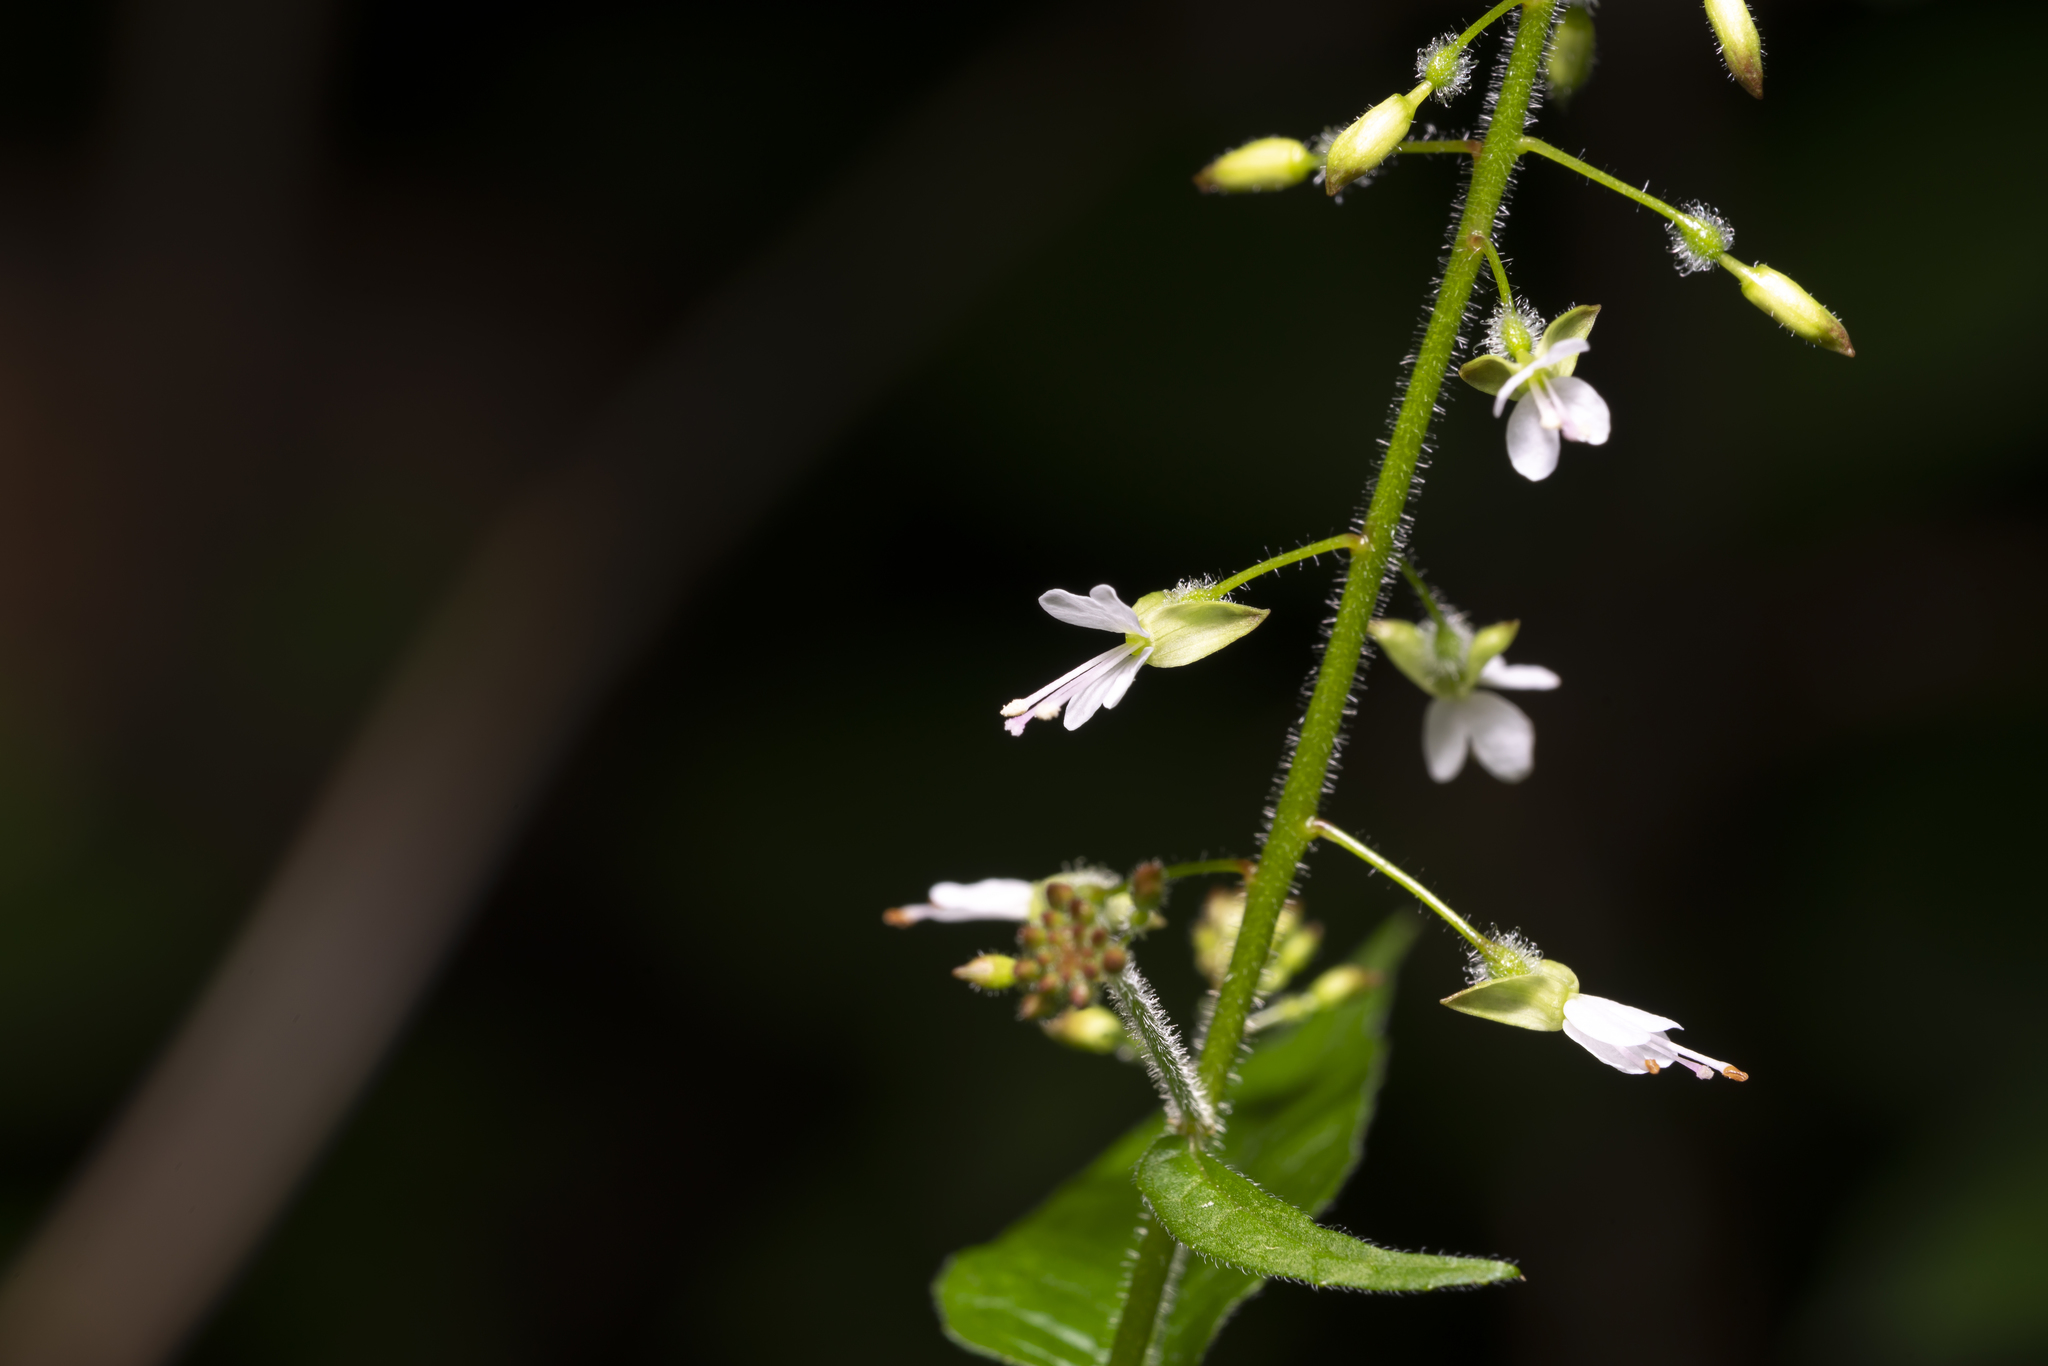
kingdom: Plantae
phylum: Tracheophyta
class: Magnoliopsida
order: Myrtales
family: Onagraceae
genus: Circaea
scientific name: Circaea lutetiana
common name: Enchanter's-nightshade
